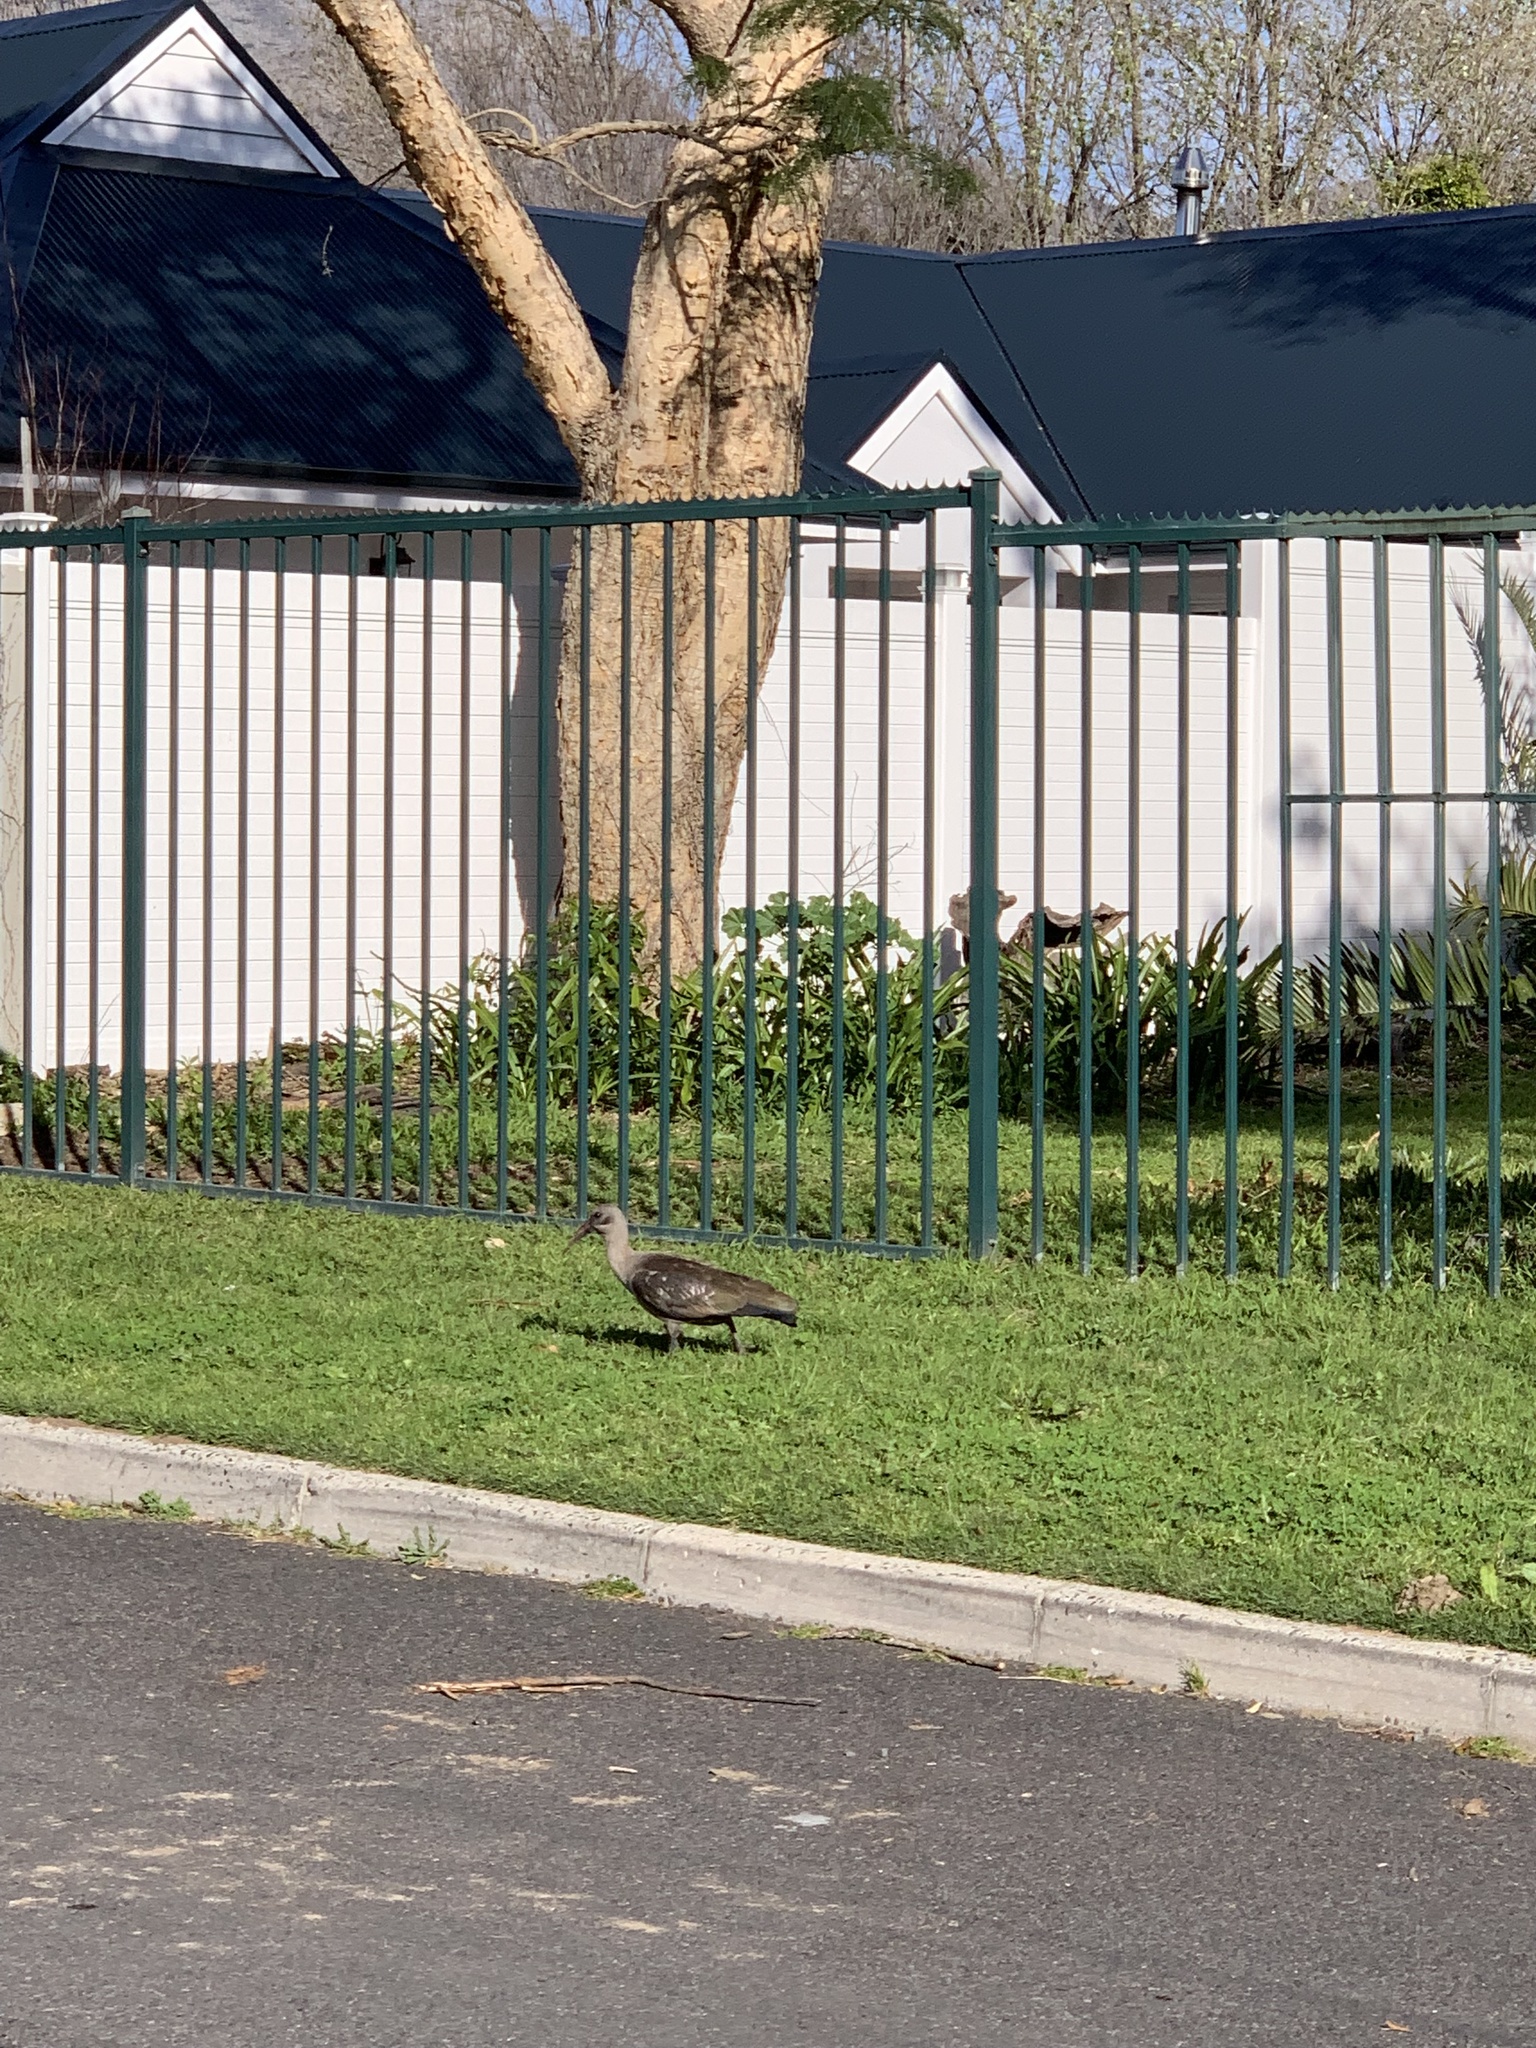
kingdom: Animalia
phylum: Chordata
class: Aves
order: Pelecaniformes
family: Threskiornithidae
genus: Bostrychia
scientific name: Bostrychia hagedash
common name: Hadada ibis
